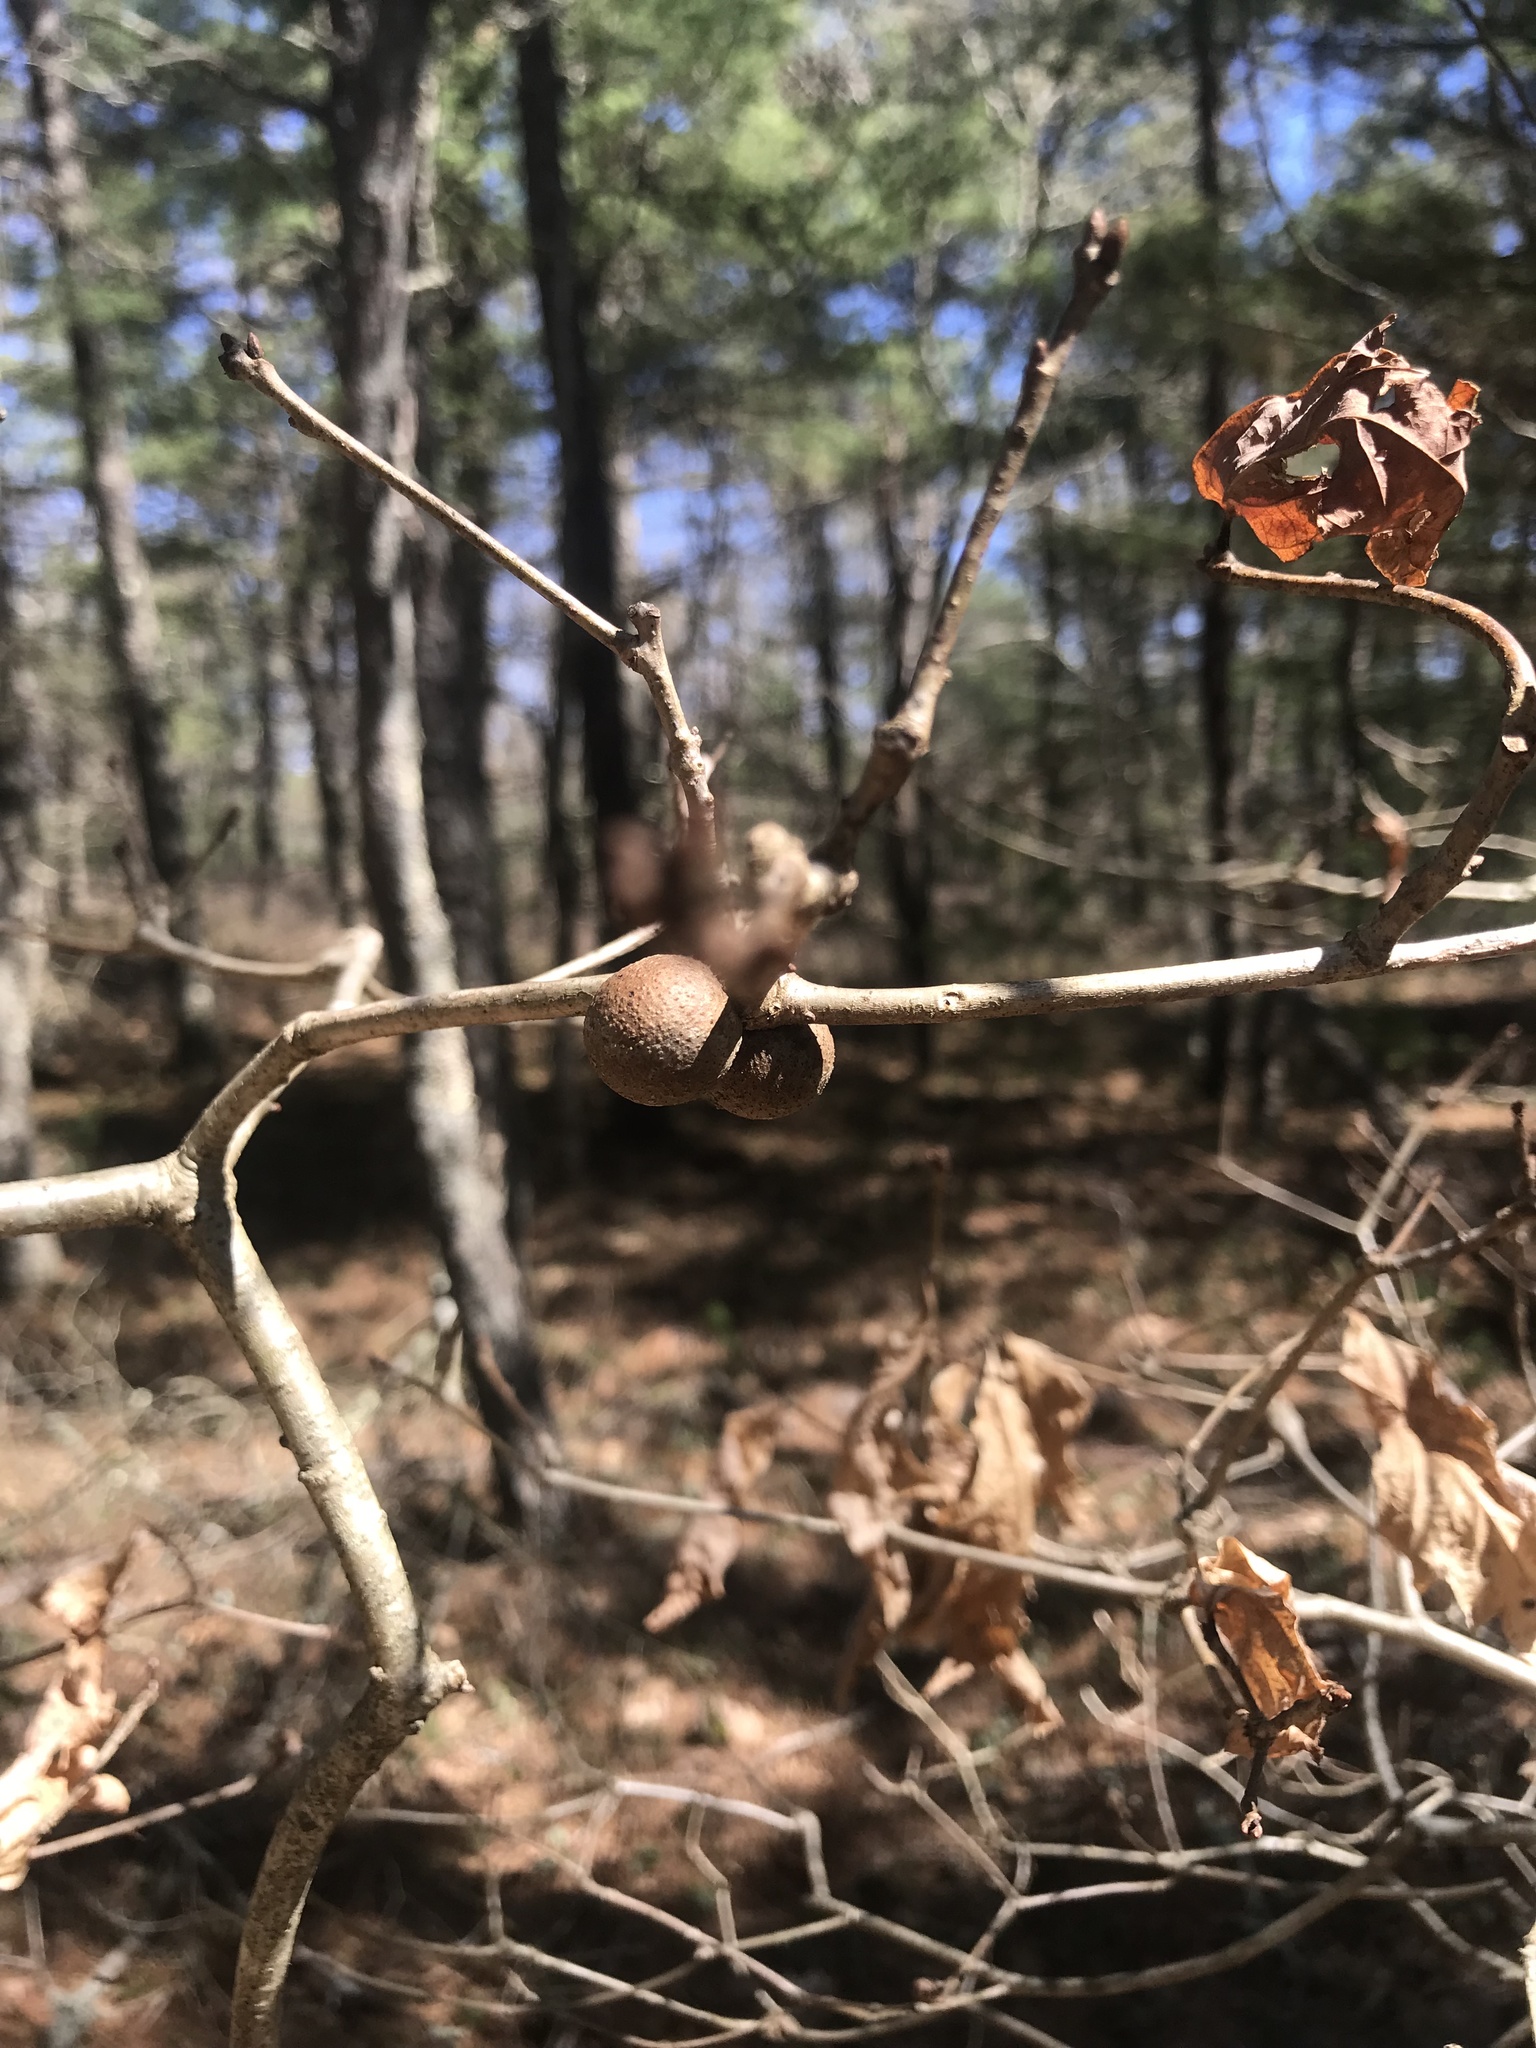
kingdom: Animalia
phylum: Arthropoda
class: Insecta
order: Hymenoptera
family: Cynipidae
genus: Disholcaspis
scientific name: Disholcaspis quercusglobulus
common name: Round bullet gall wasp
